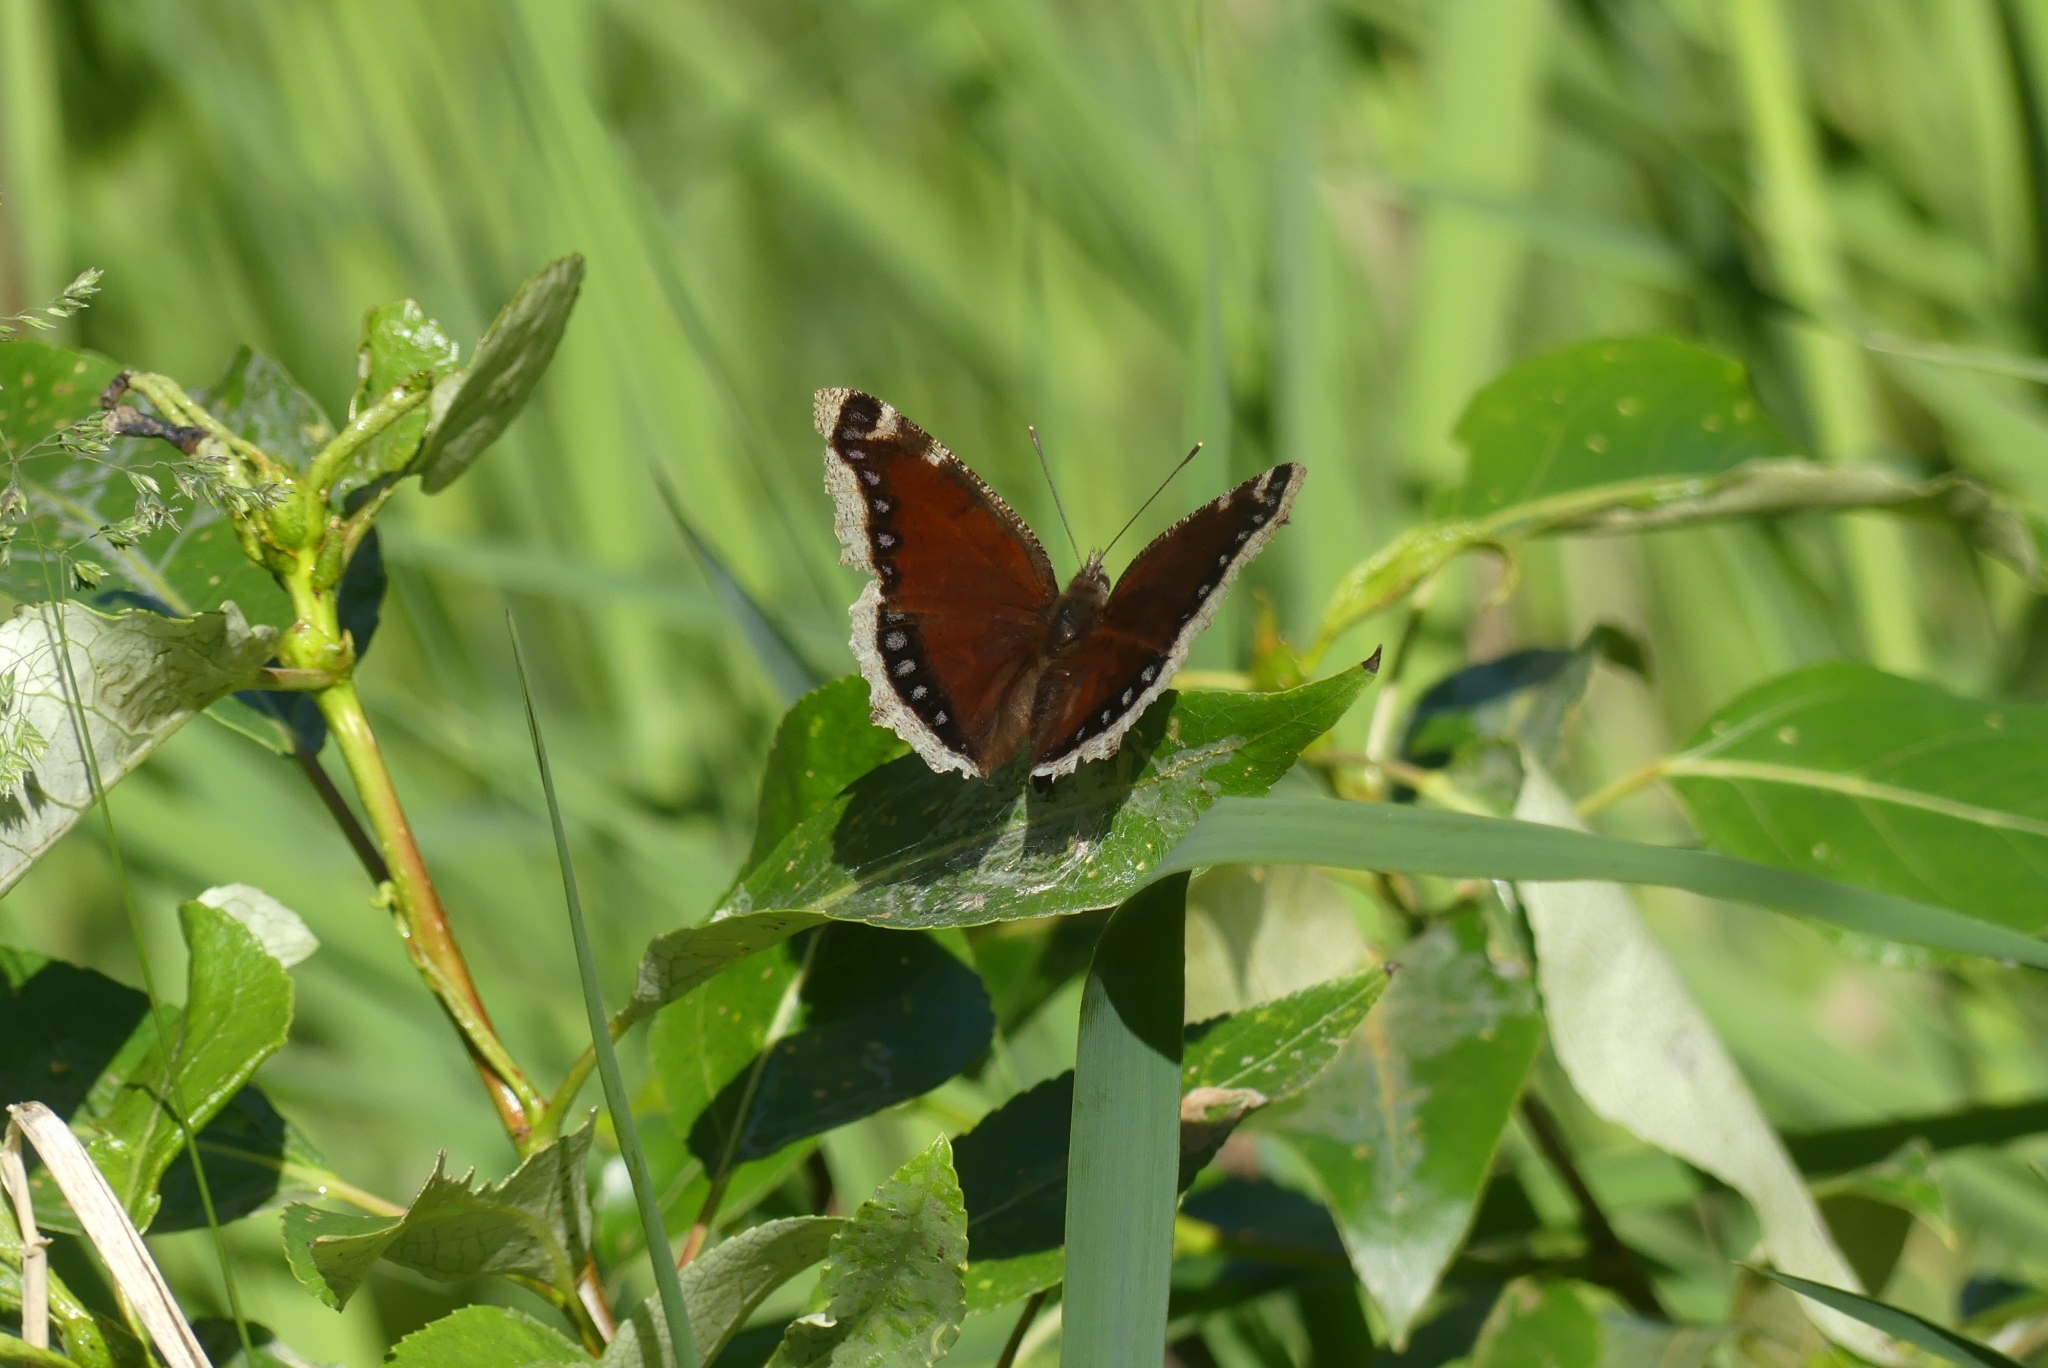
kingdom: Animalia
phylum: Arthropoda
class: Insecta
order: Lepidoptera
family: Nymphalidae
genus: Nymphalis
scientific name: Nymphalis antiopa
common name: Camberwell beauty
